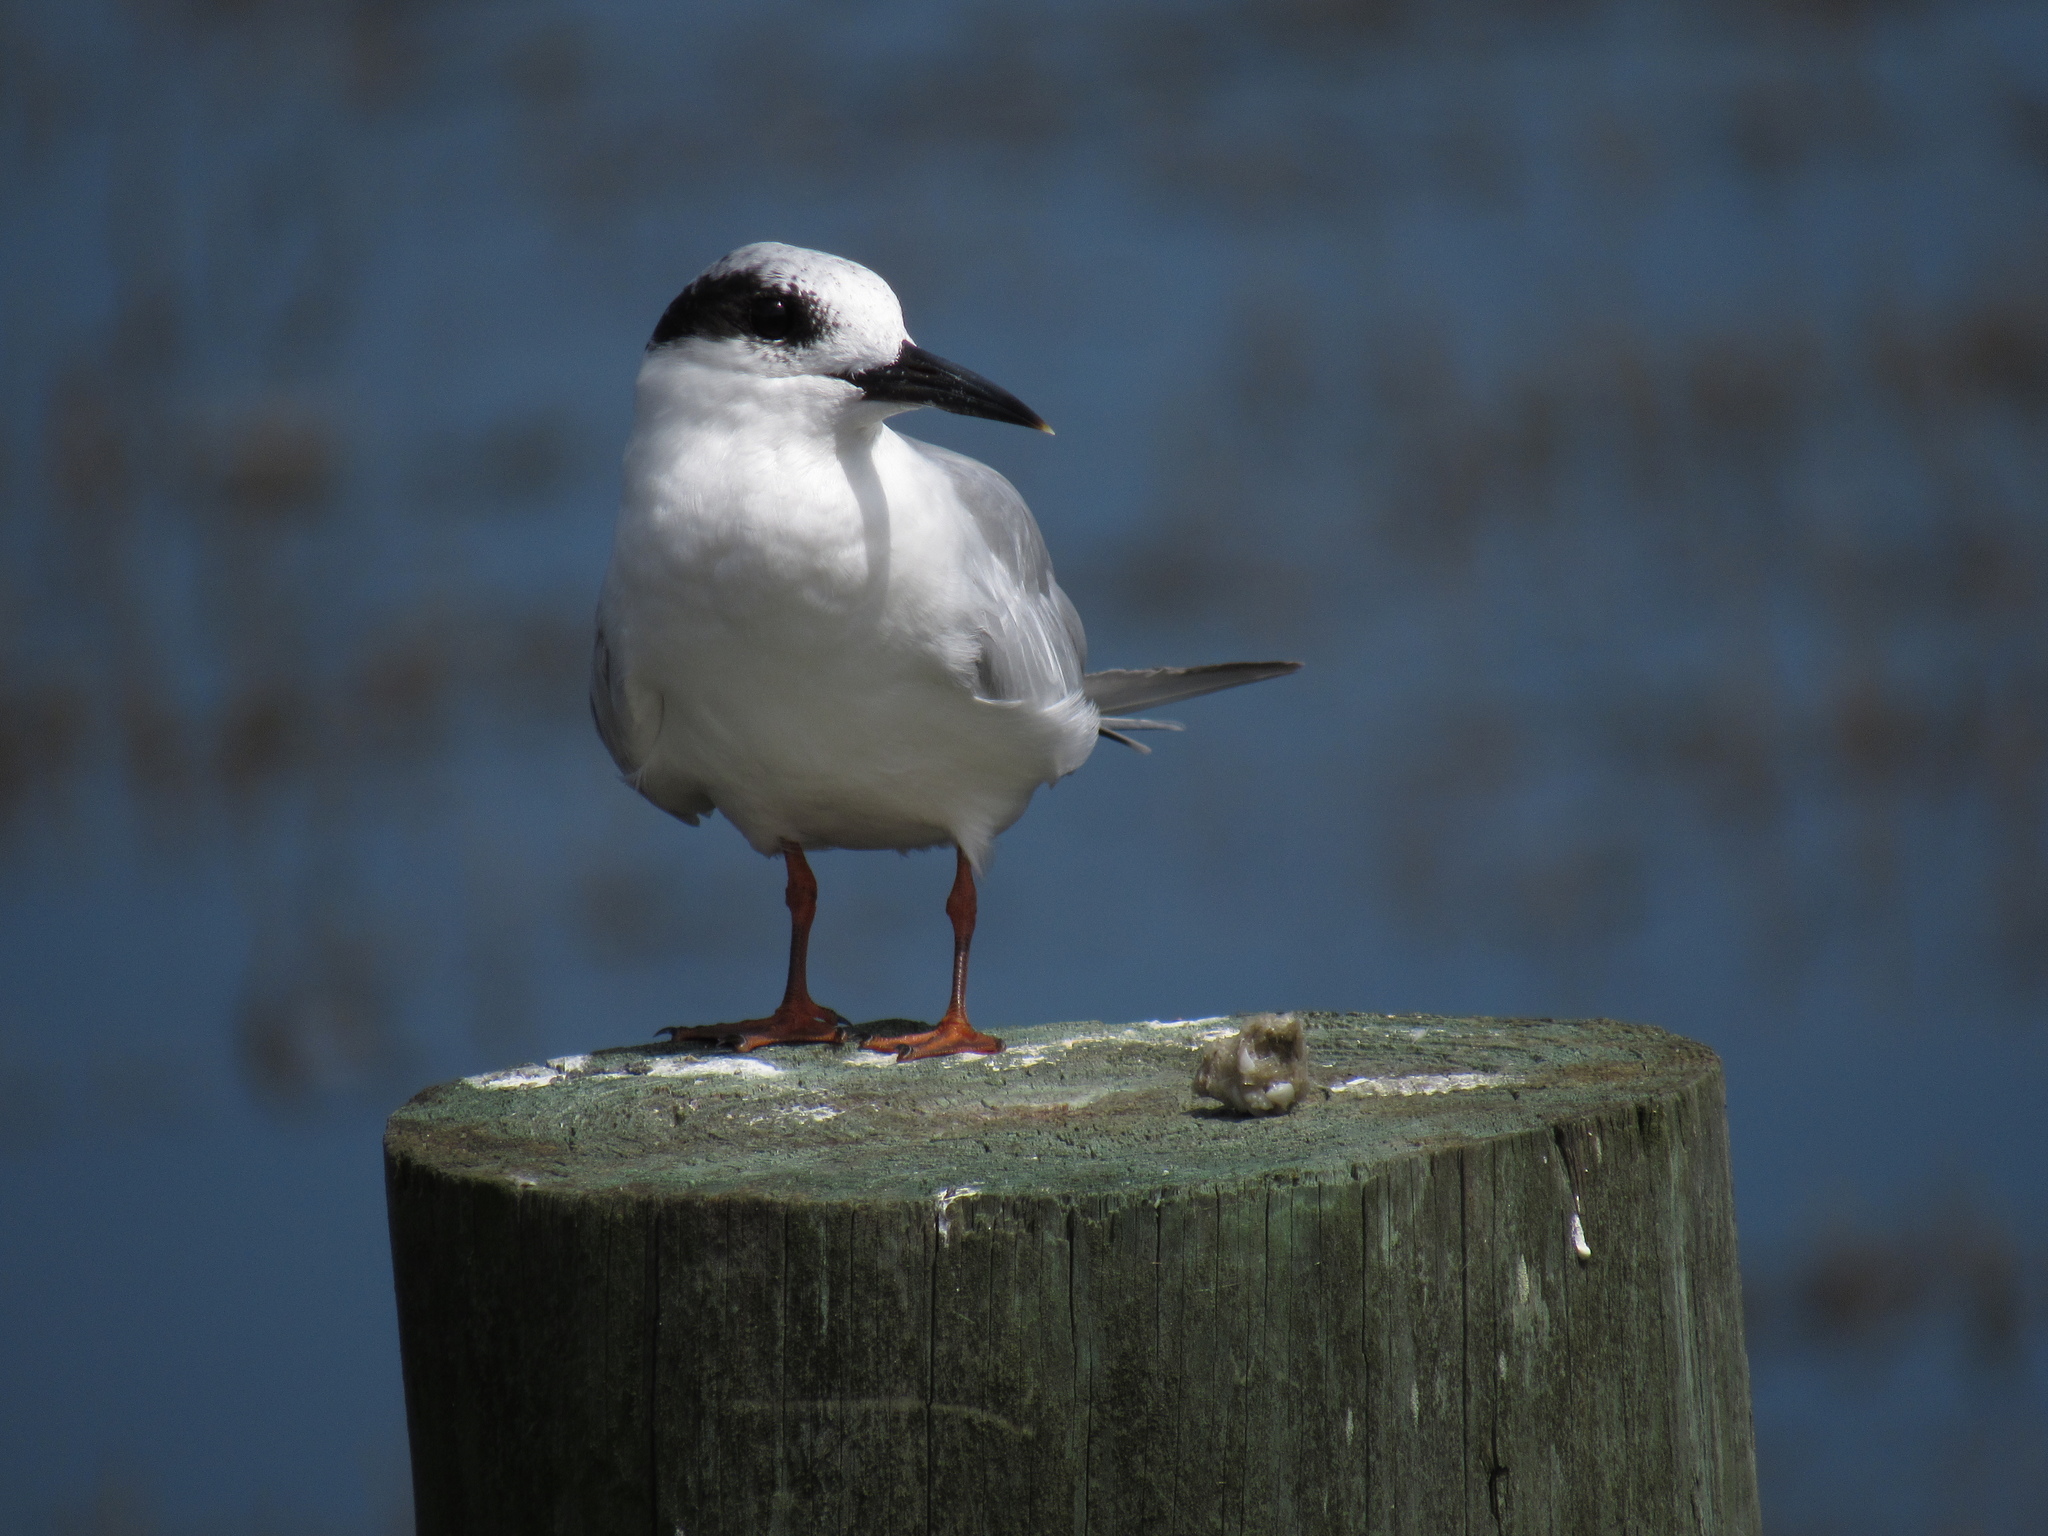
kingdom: Animalia
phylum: Chordata
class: Aves
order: Charadriiformes
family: Laridae
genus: Sterna
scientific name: Sterna forsteri
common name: Forster's tern
